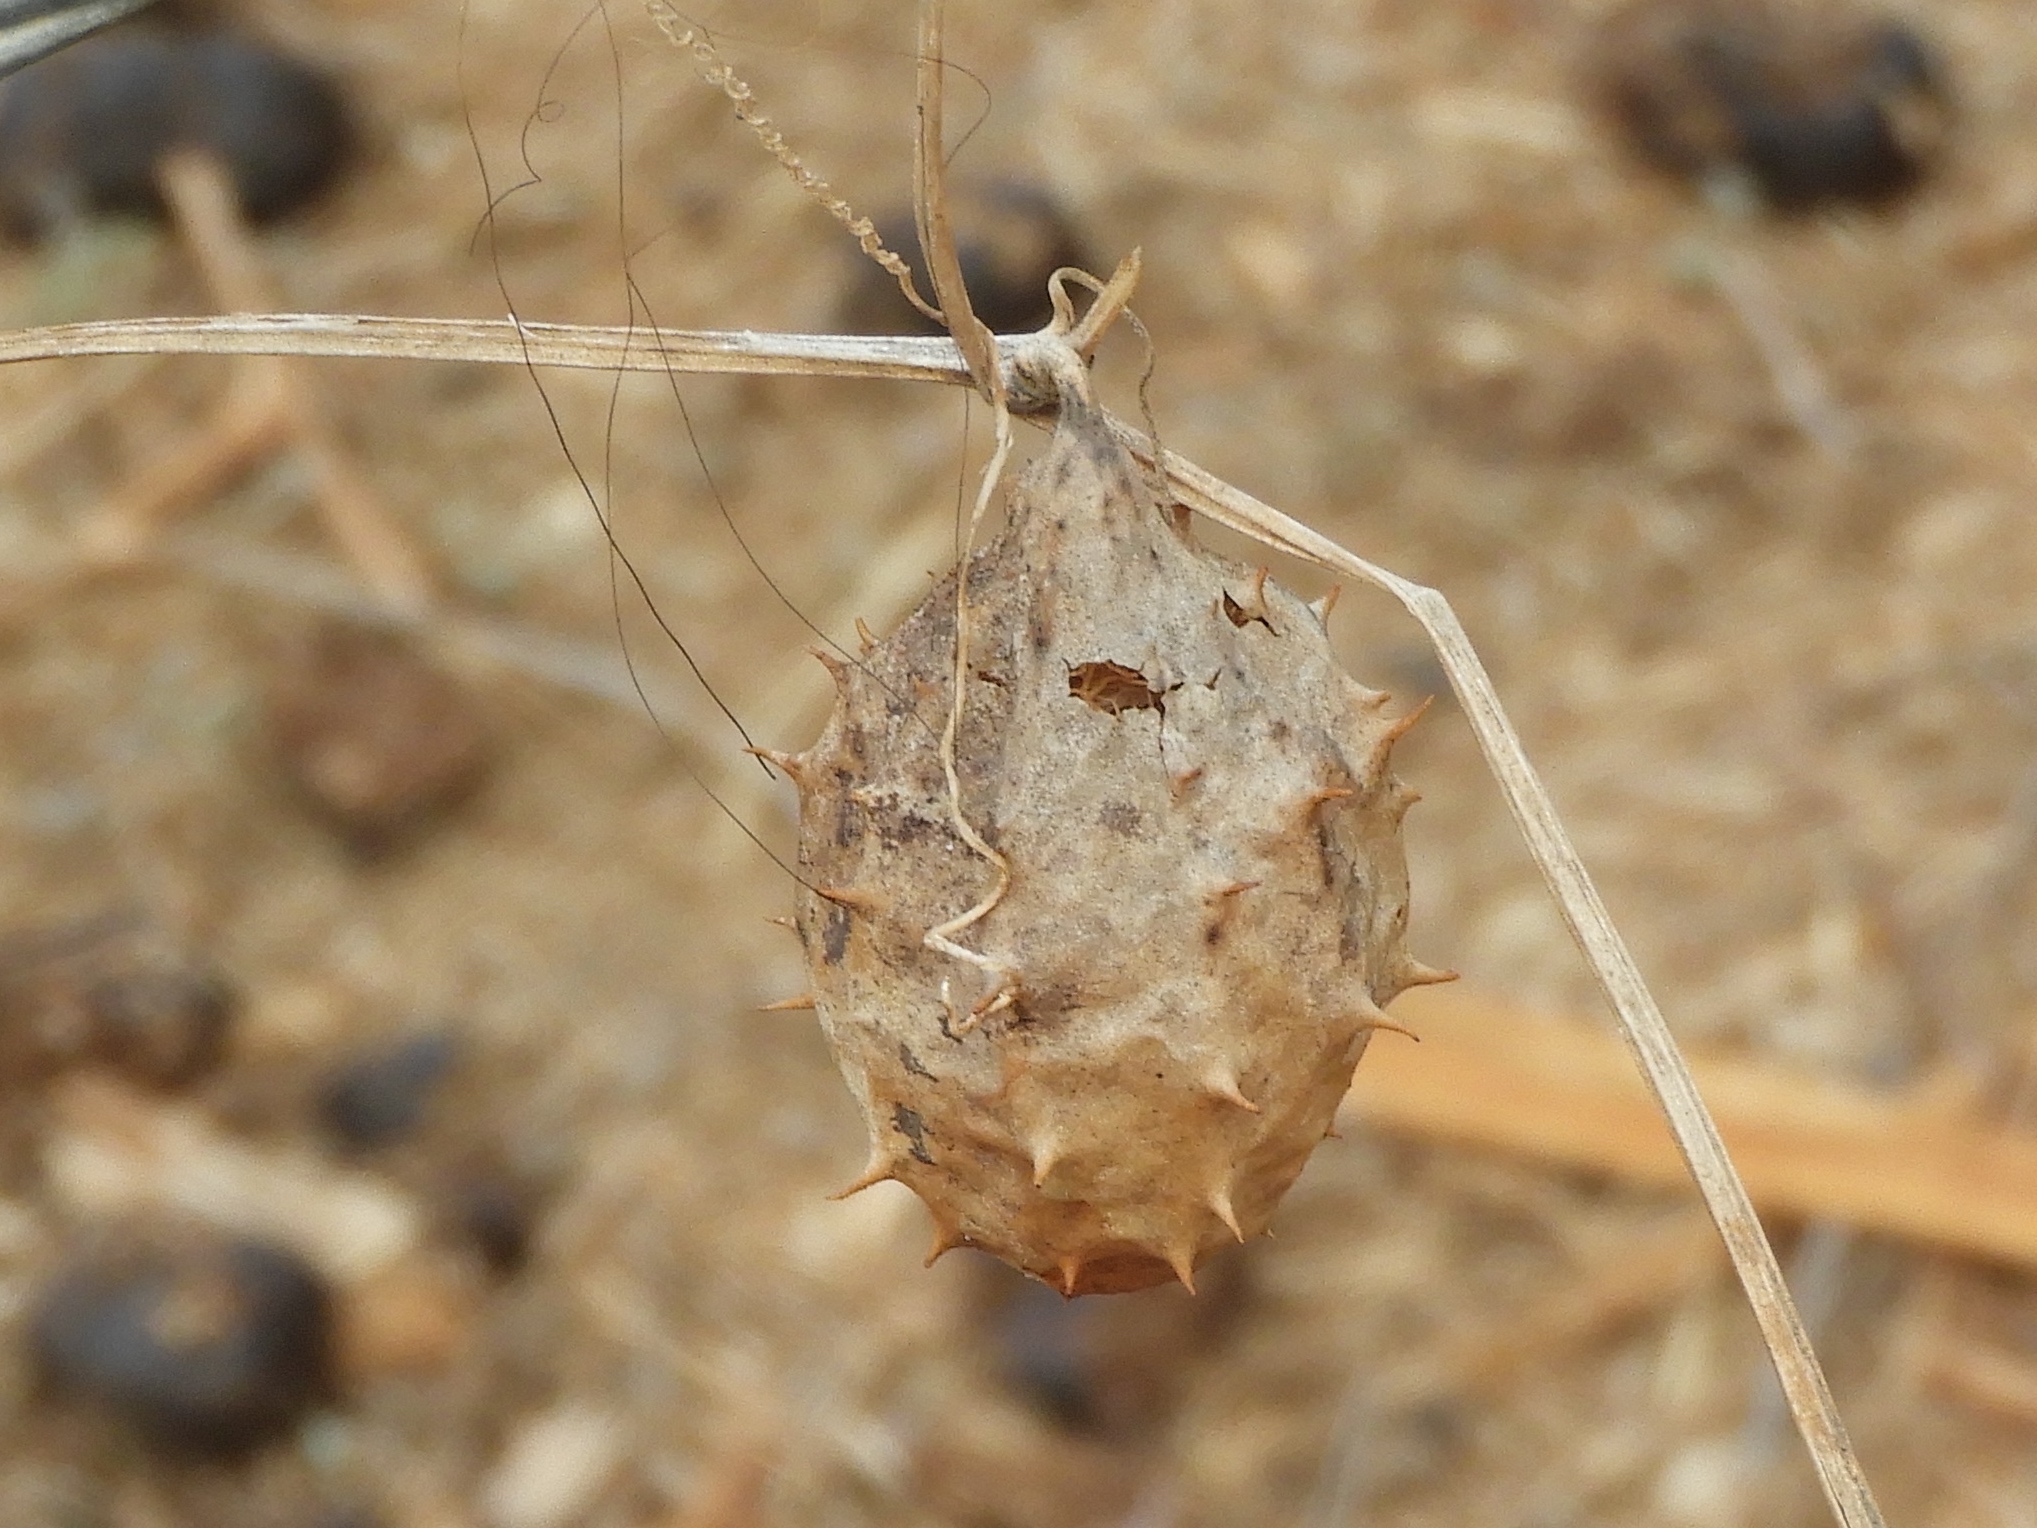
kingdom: Plantae
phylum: Tracheophyta
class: Magnoliopsida
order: Cucurbitales
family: Cucurbitaceae
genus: Luffa
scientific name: Luffa operculata
